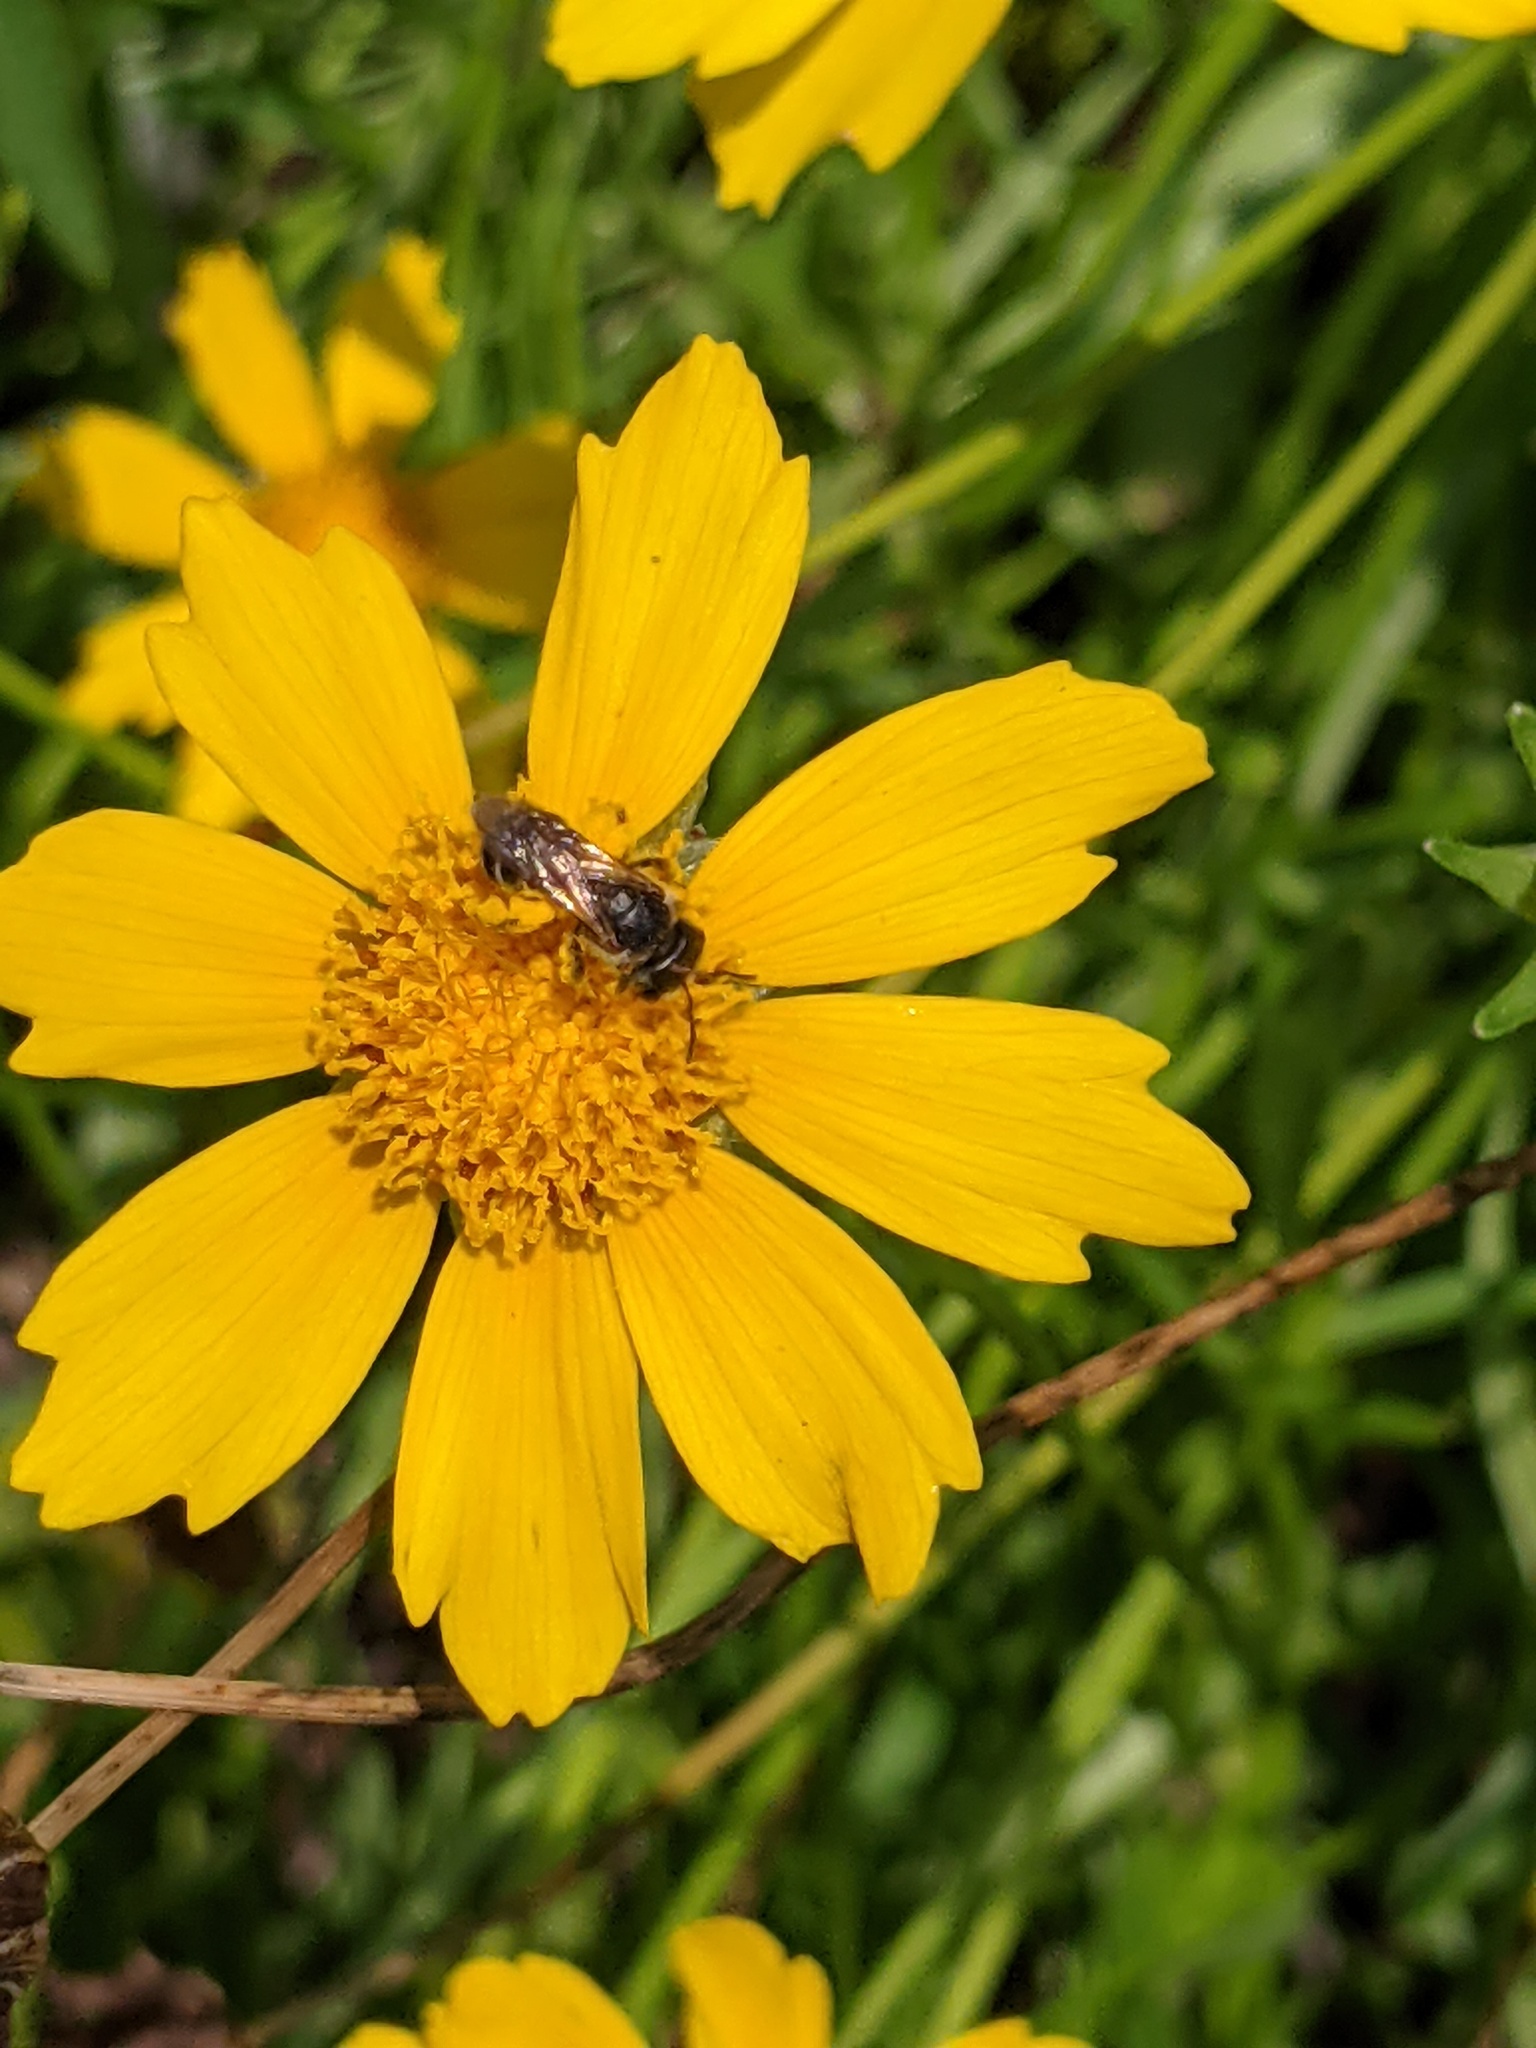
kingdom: Animalia
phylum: Arthropoda
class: Insecta
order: Hymenoptera
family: Halictidae
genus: Halictus
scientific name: Halictus ligatus
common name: Ligated furrow bee
